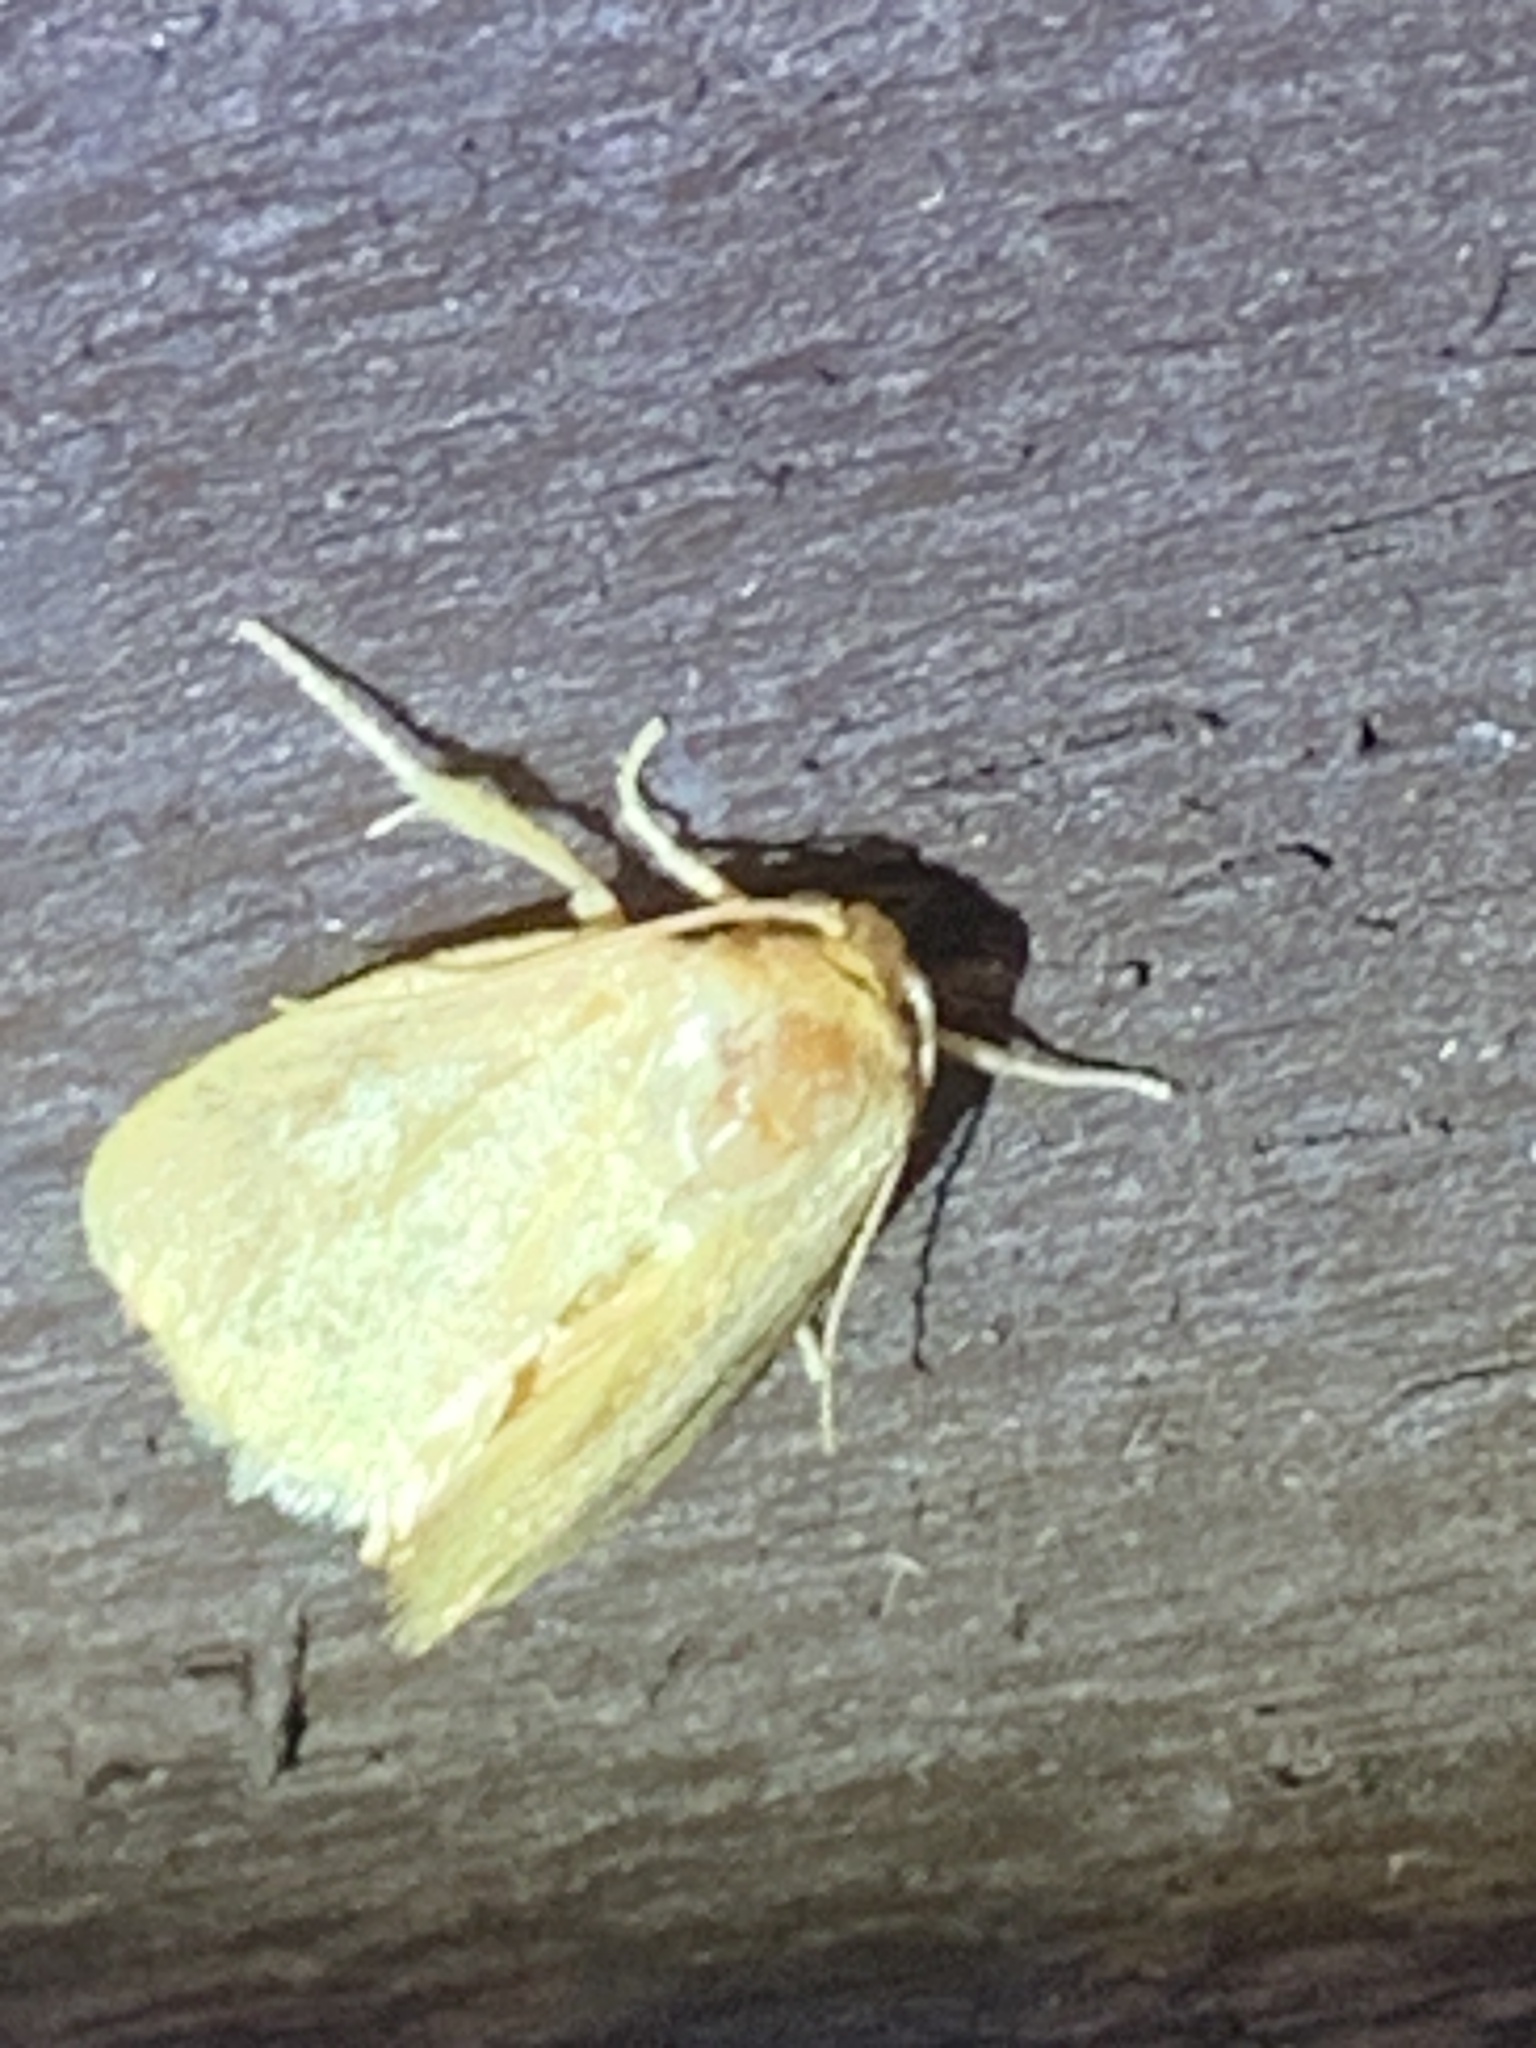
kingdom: Animalia
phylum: Arthropoda
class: Insecta
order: Lepidoptera
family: Limacodidae
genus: Tortricidia
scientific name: Tortricidia pallida
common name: Red-crossed button slug moth
